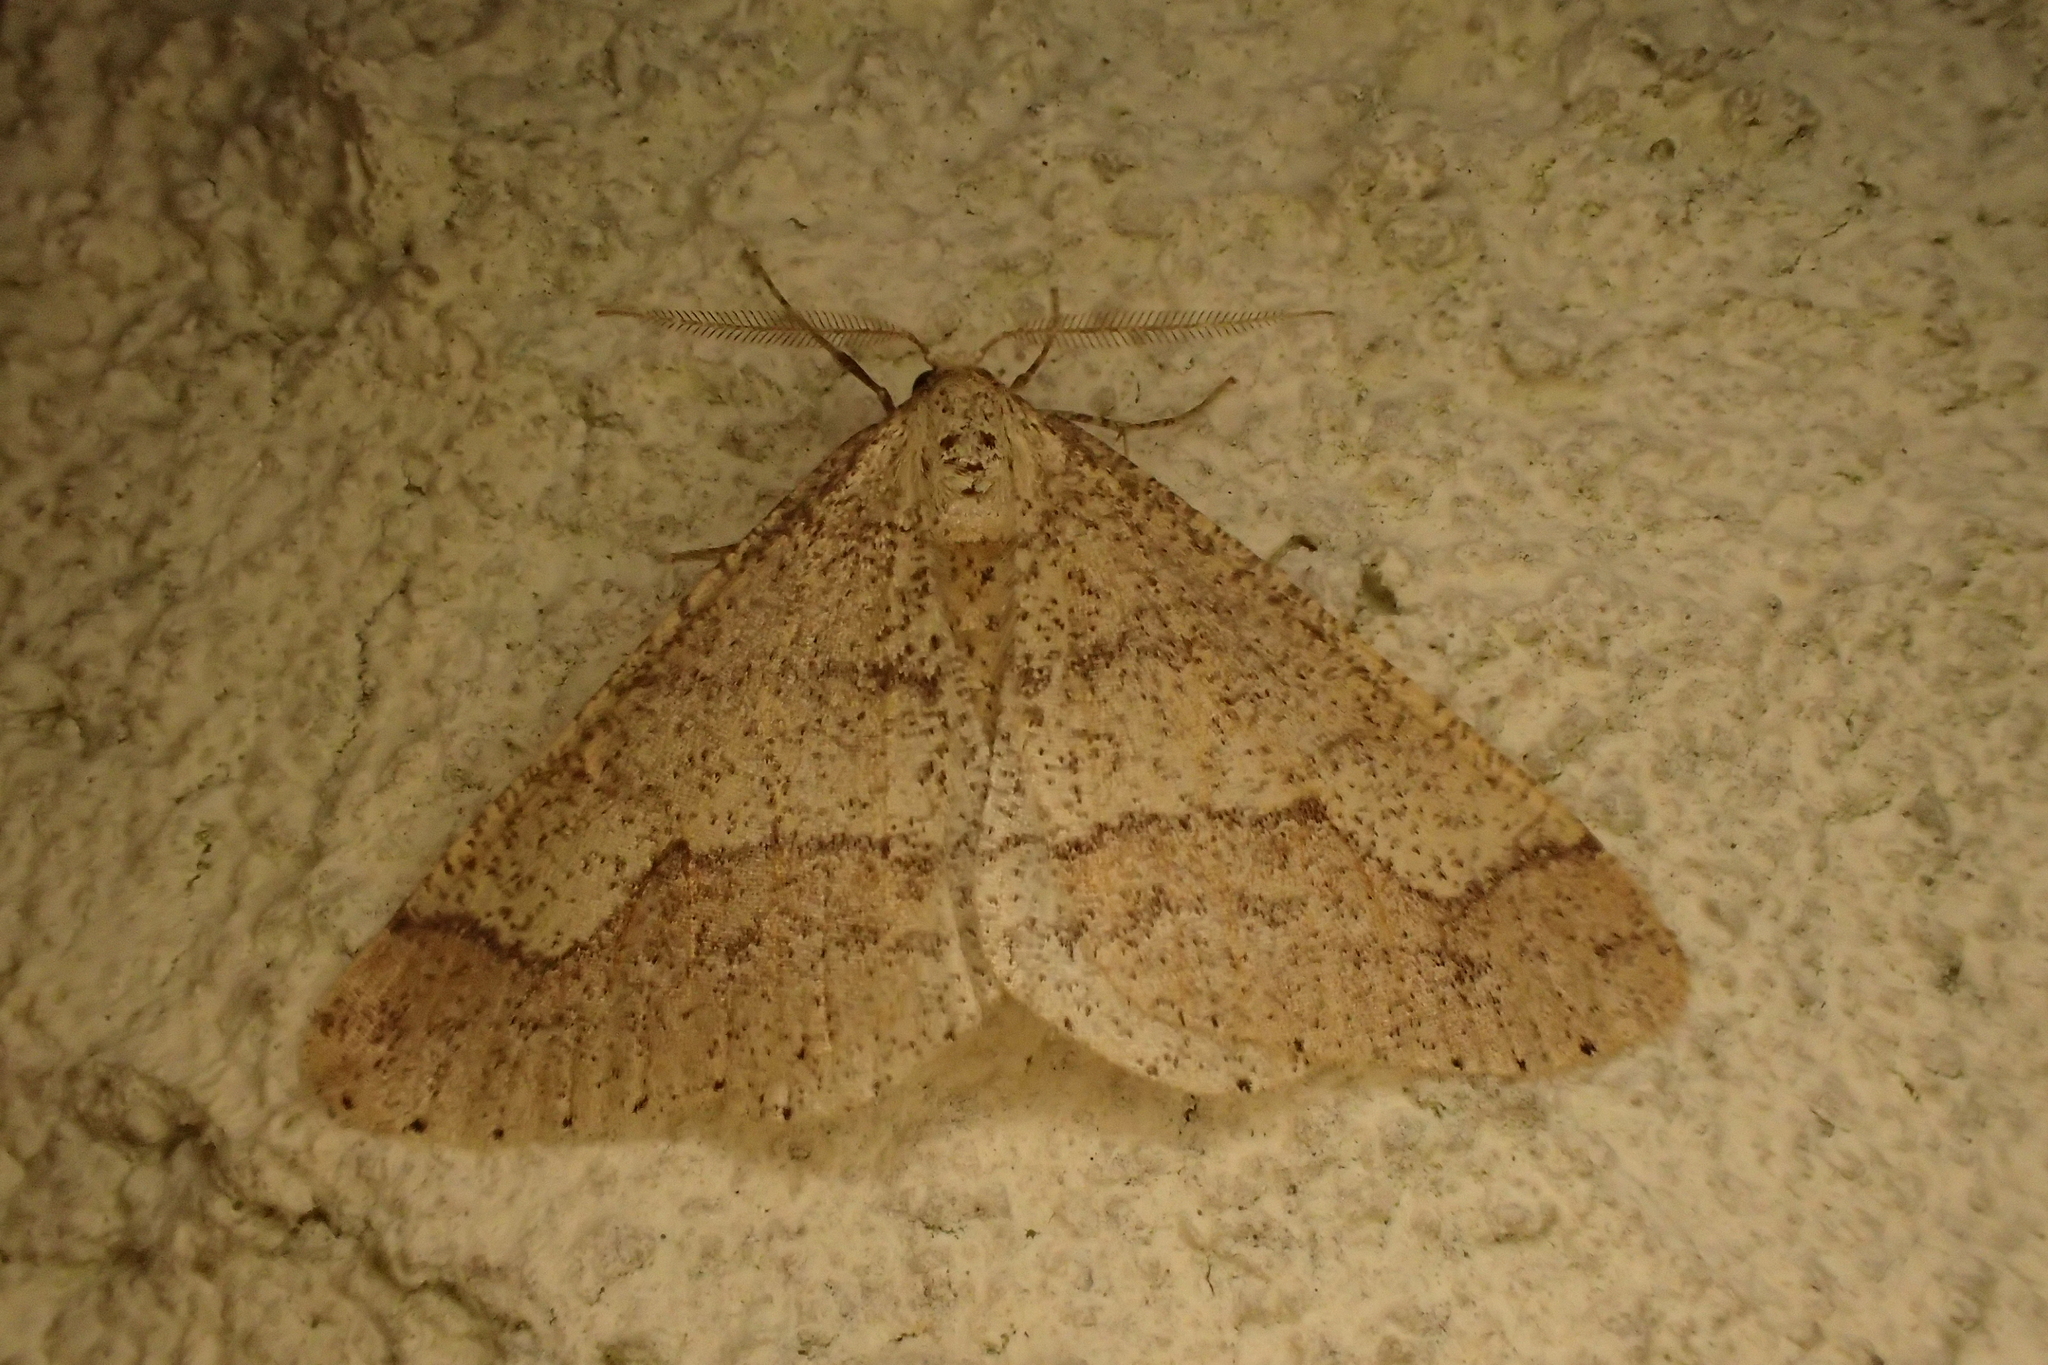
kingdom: Animalia
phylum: Arthropoda
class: Insecta
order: Lepidoptera
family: Geometridae
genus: Agriopis
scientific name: Agriopis marginaria
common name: Dotted border
